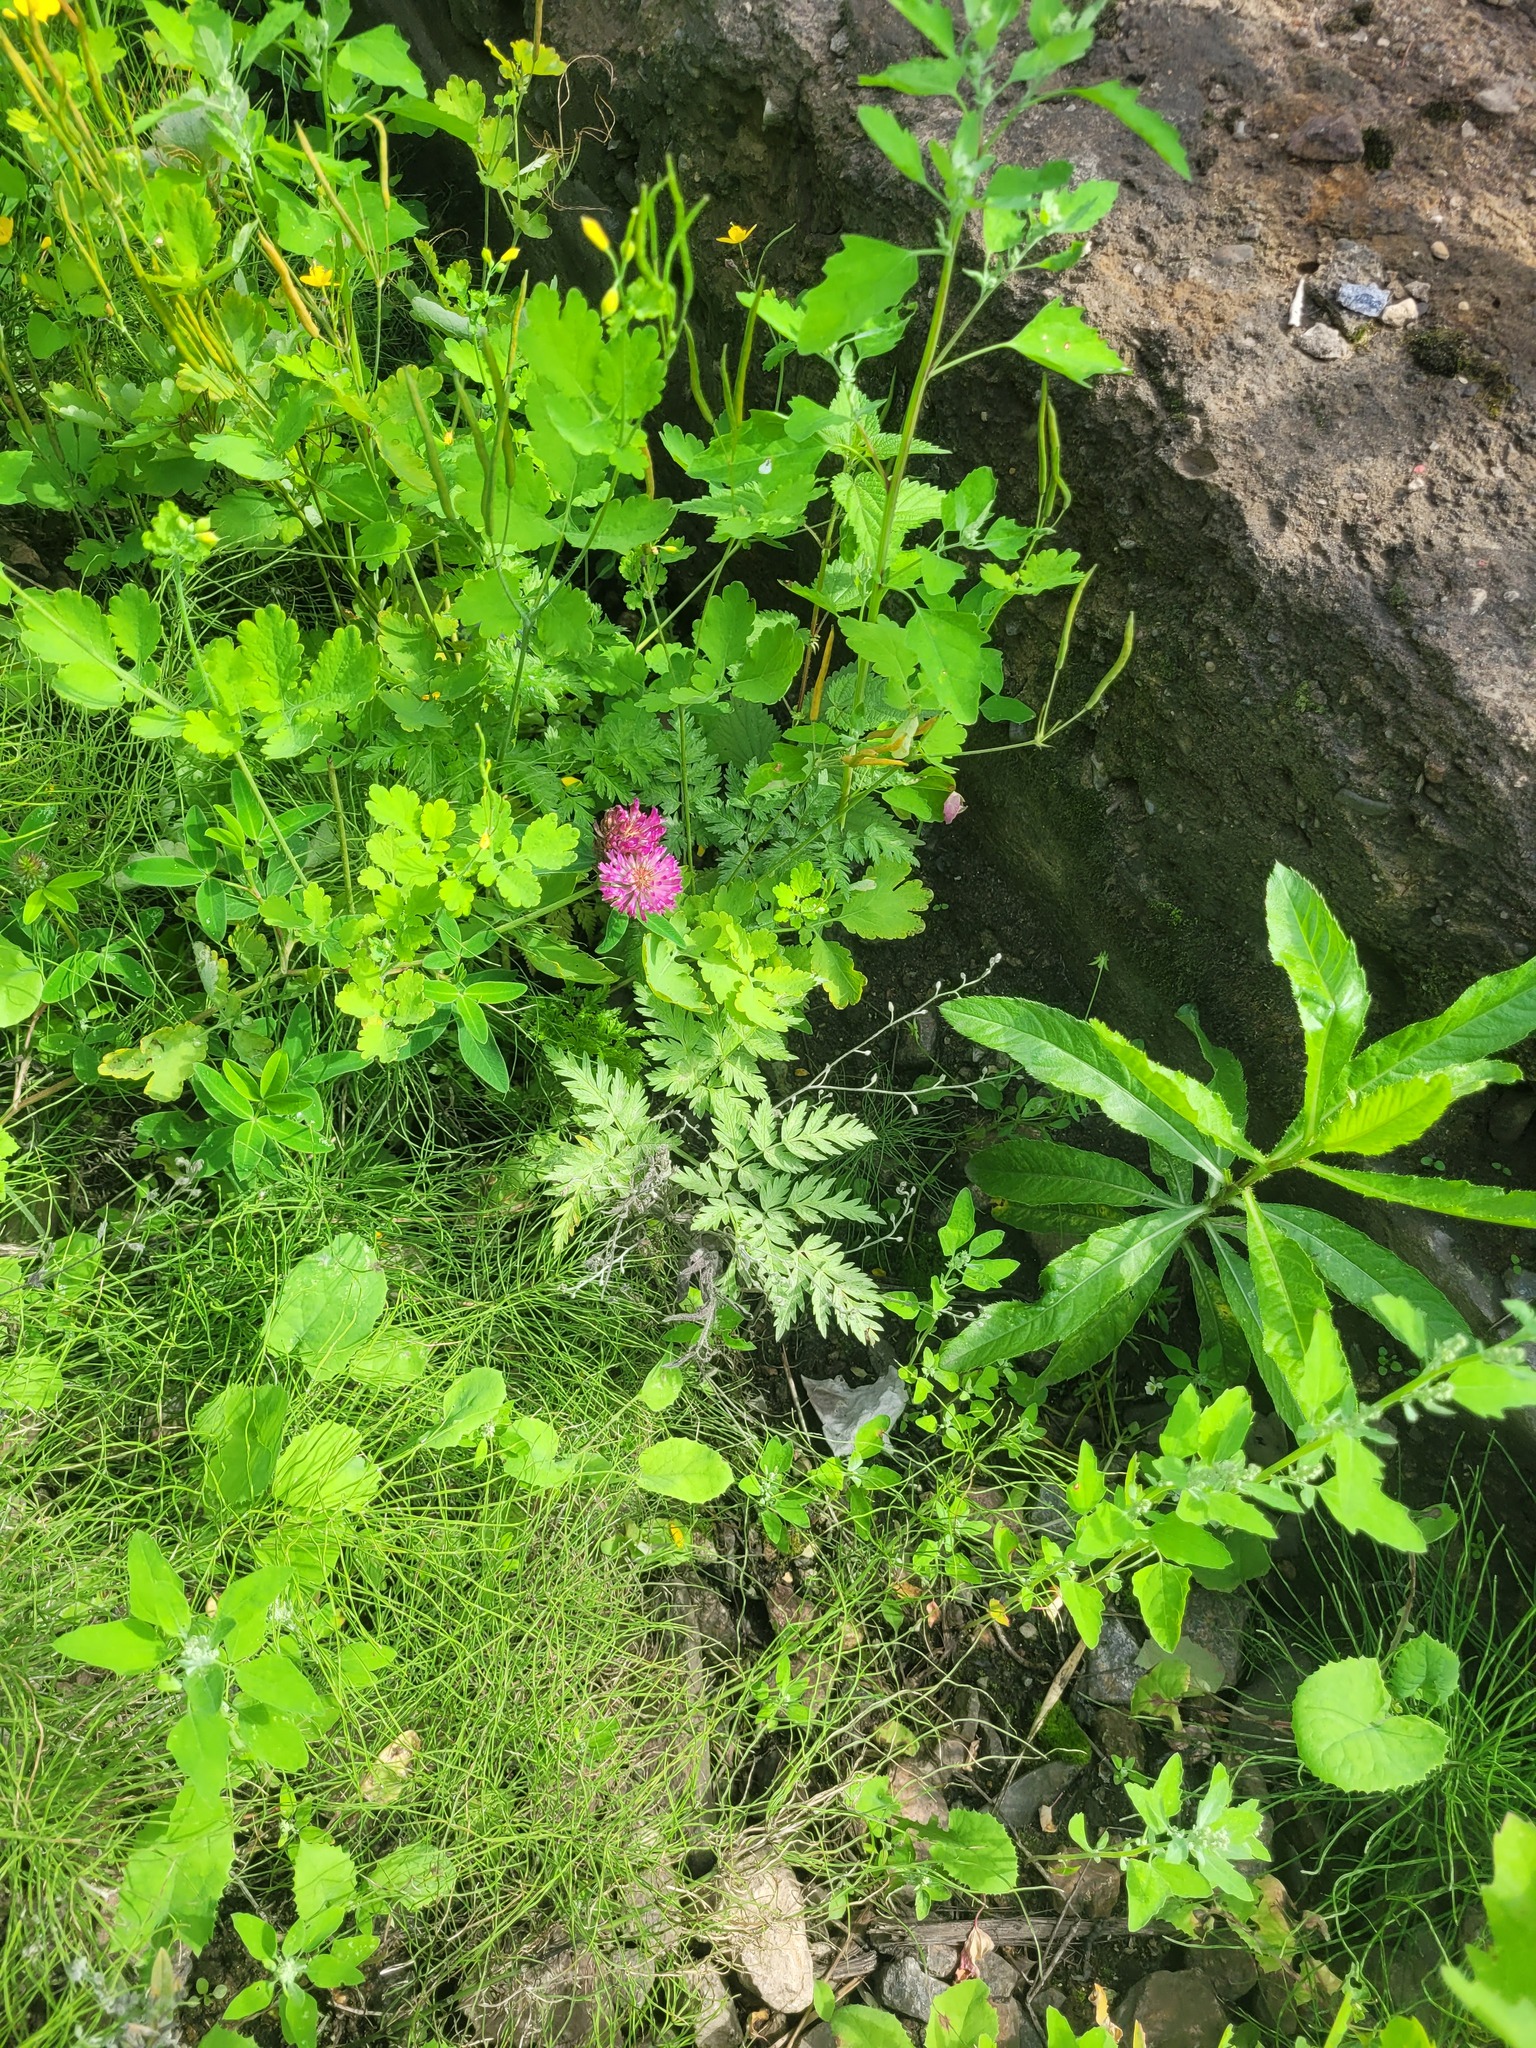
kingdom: Plantae
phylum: Tracheophyta
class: Magnoliopsida
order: Apiales
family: Apiaceae
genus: Anthriscus
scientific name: Anthriscus sylvestris
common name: Cow parsley
